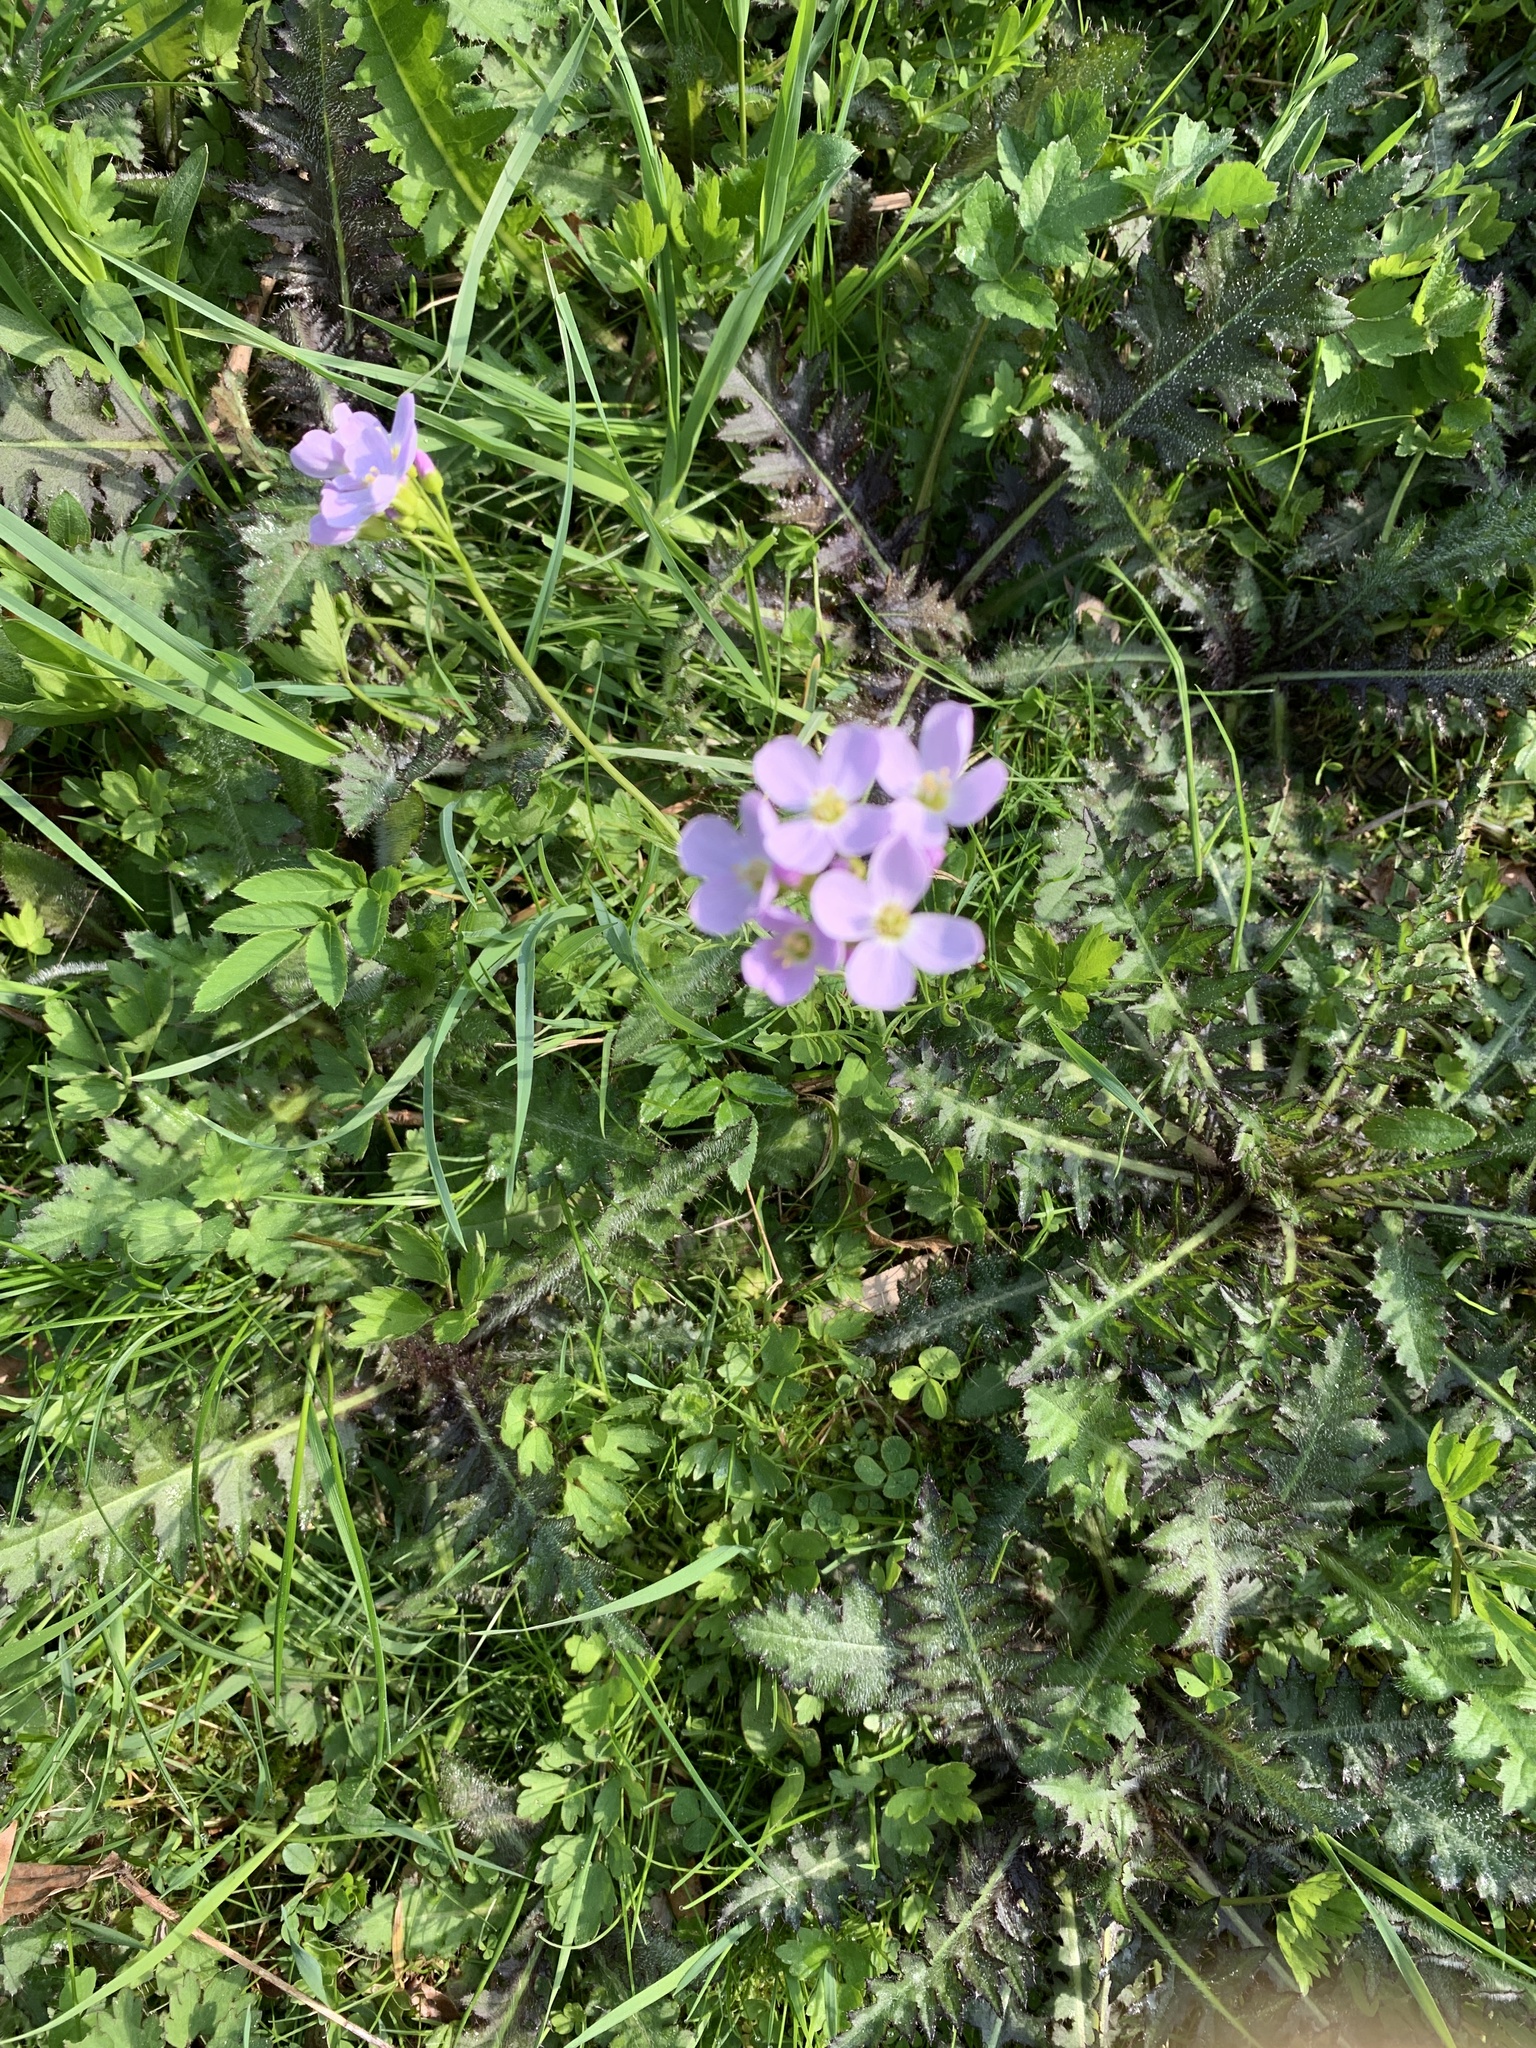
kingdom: Plantae
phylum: Tracheophyta
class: Magnoliopsida
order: Brassicales
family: Brassicaceae
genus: Cardamine
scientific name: Cardamine pratensis
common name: Cuckoo flower
